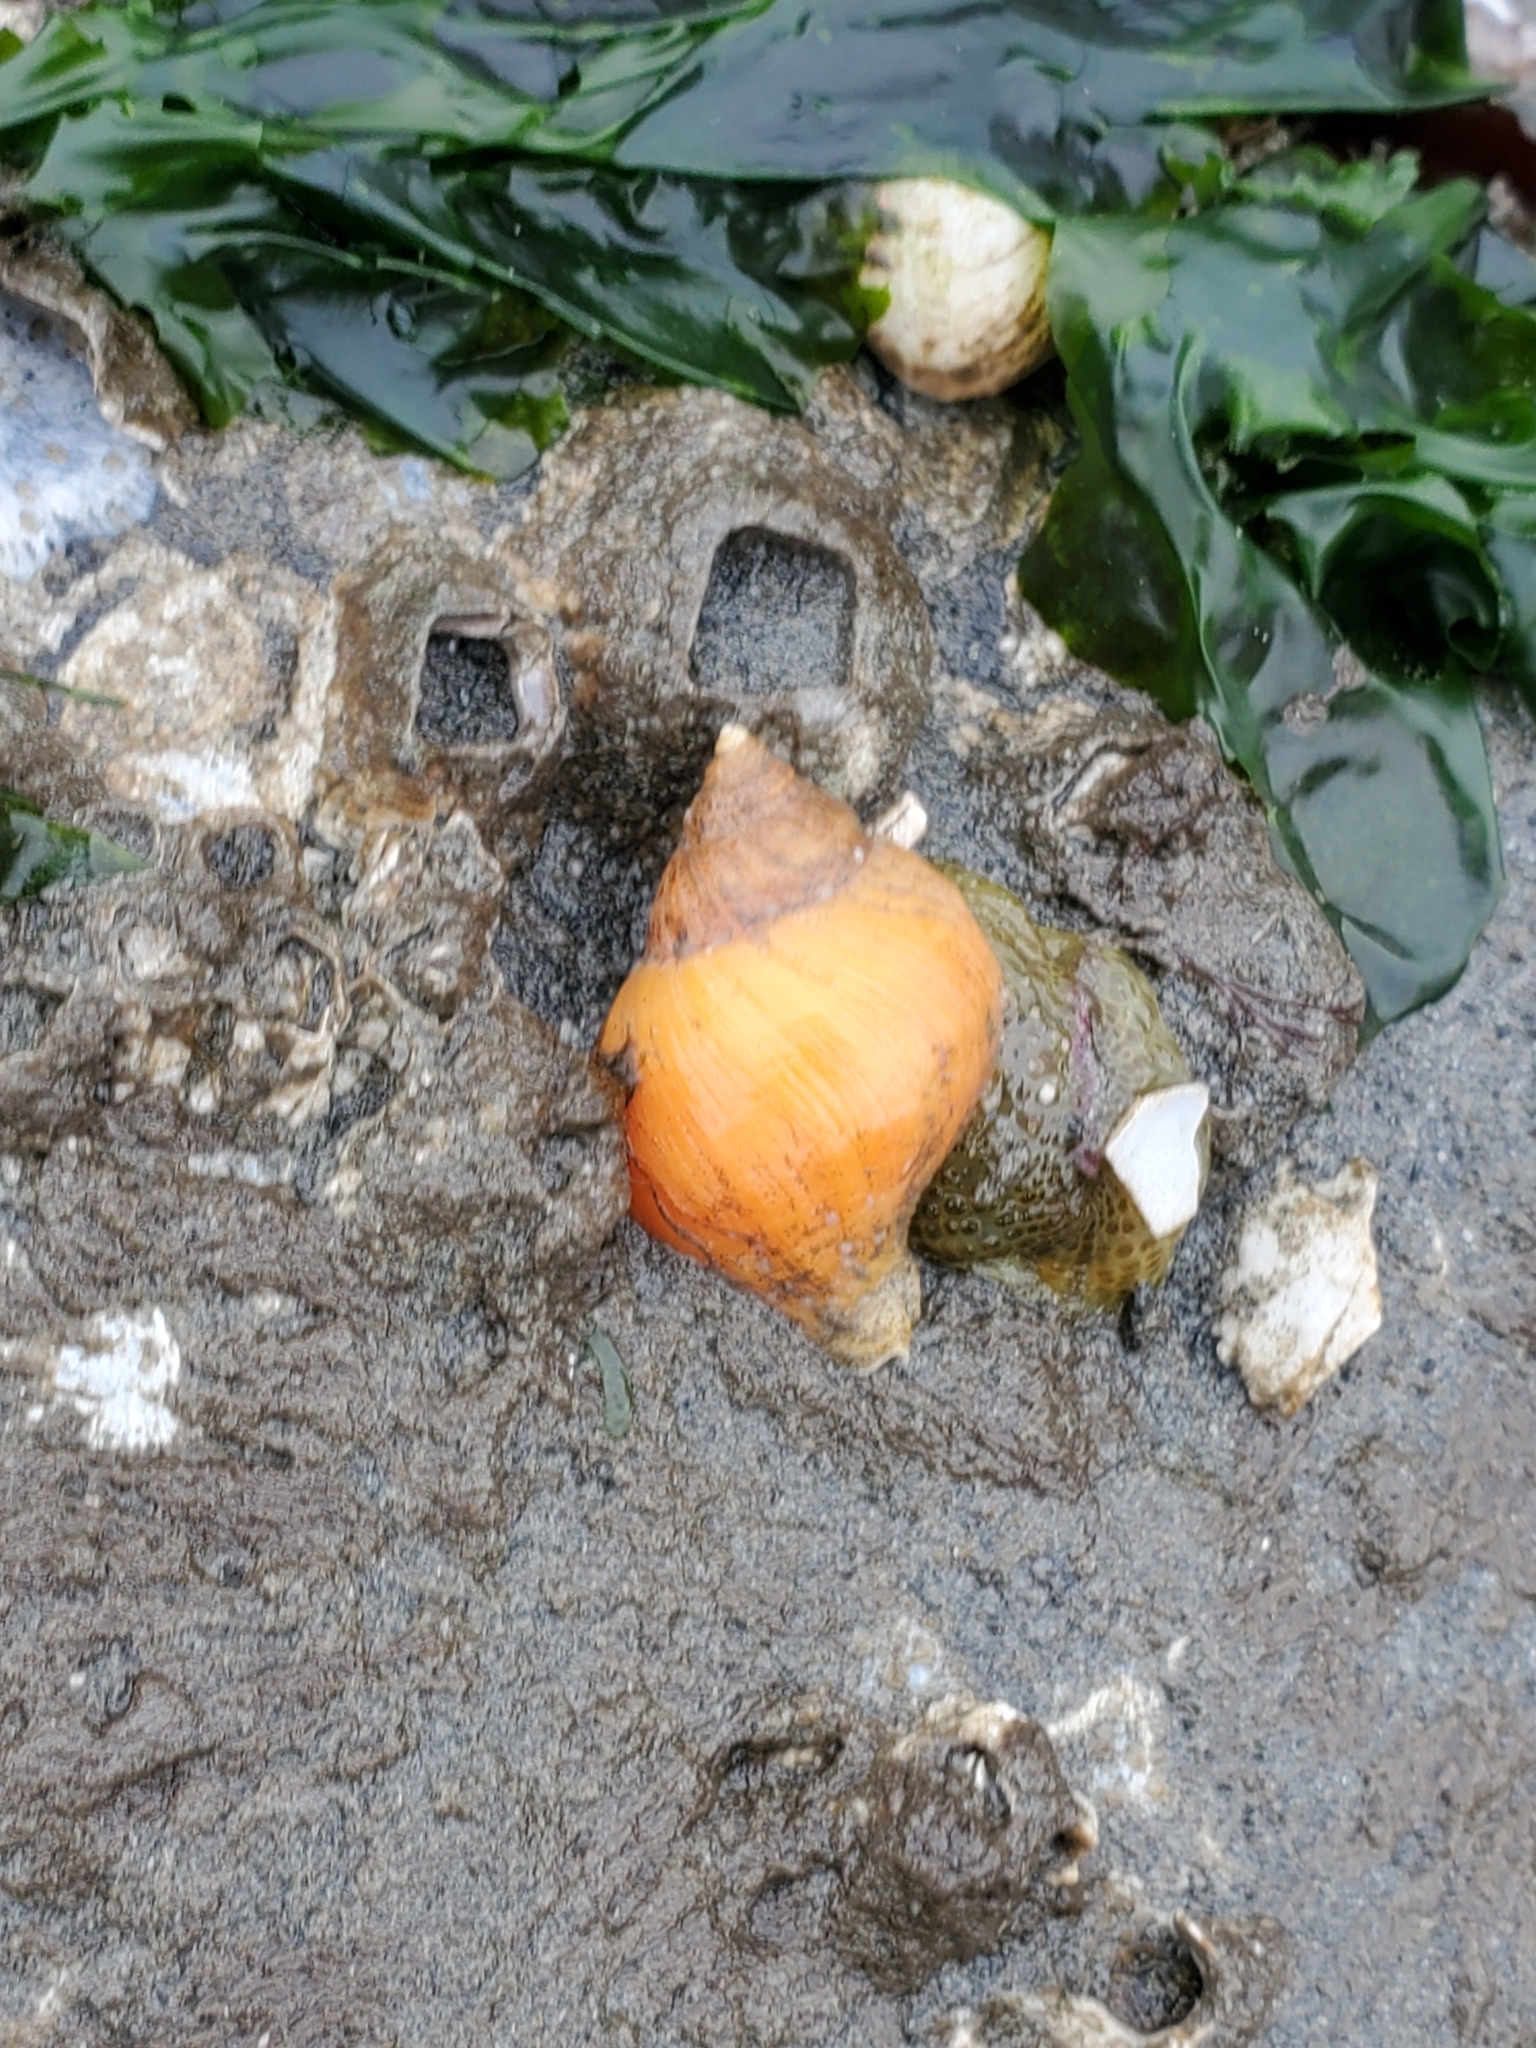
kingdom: Animalia
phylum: Mollusca
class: Gastropoda
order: Neogastropoda
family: Muricidae
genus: Nucella
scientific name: Nucella lamellosa
